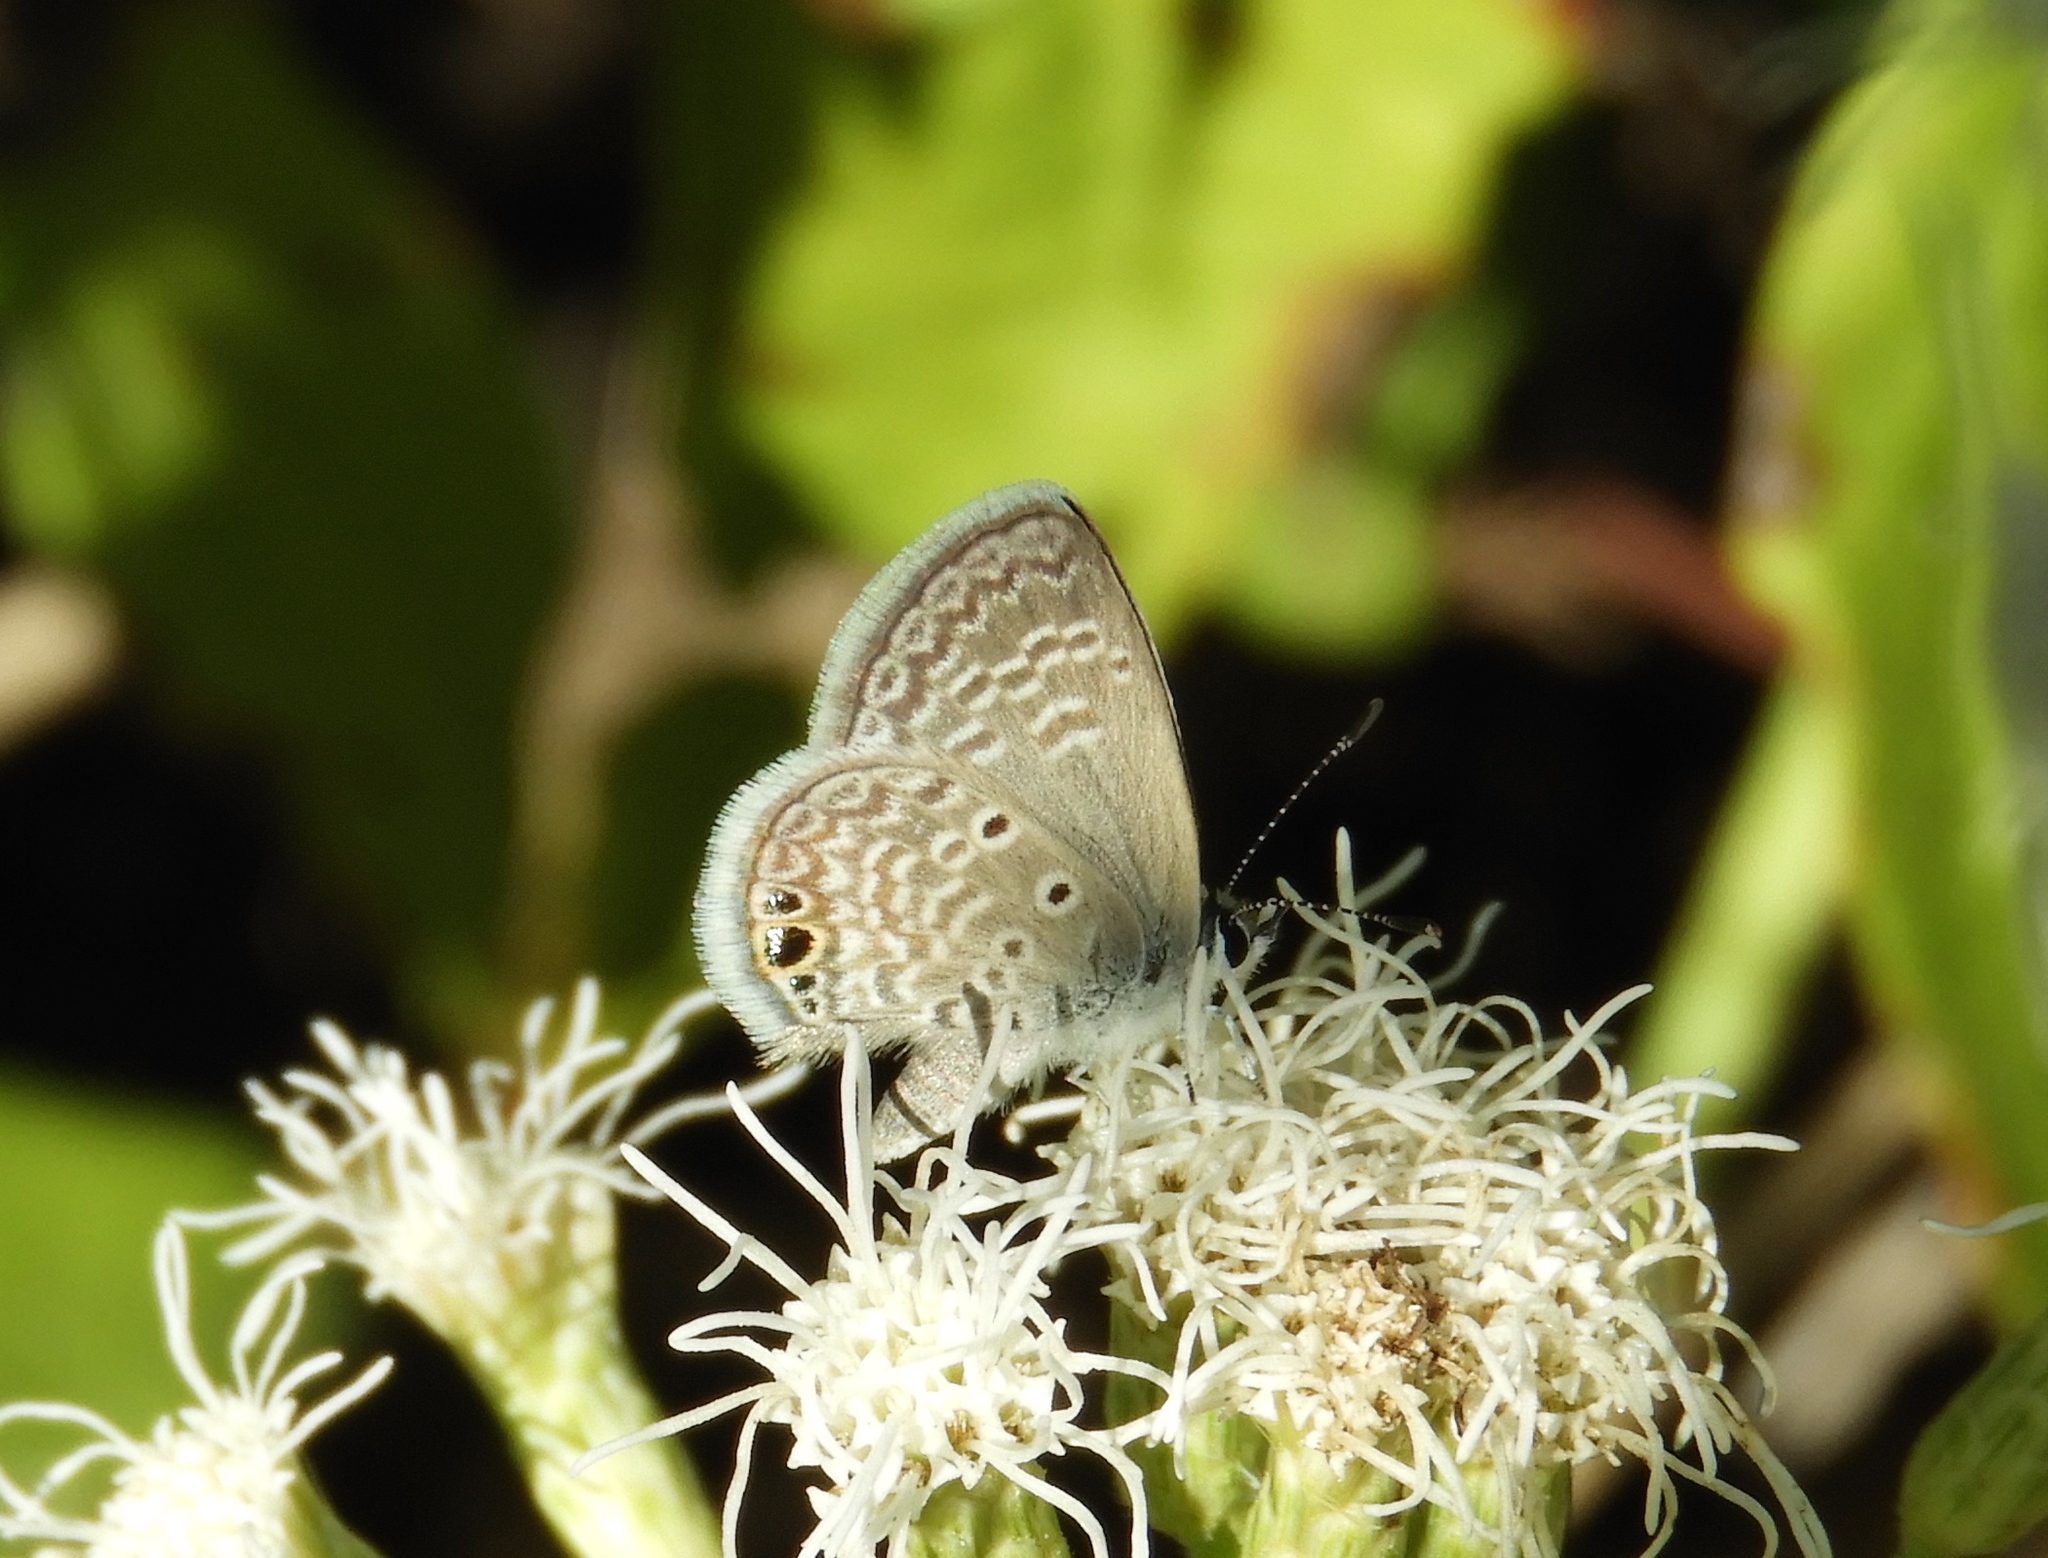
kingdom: Animalia
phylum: Arthropoda
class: Insecta
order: Lepidoptera
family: Lycaenidae
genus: Hemiargus
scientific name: Hemiargus ceraunus
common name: Ceraunus blue
